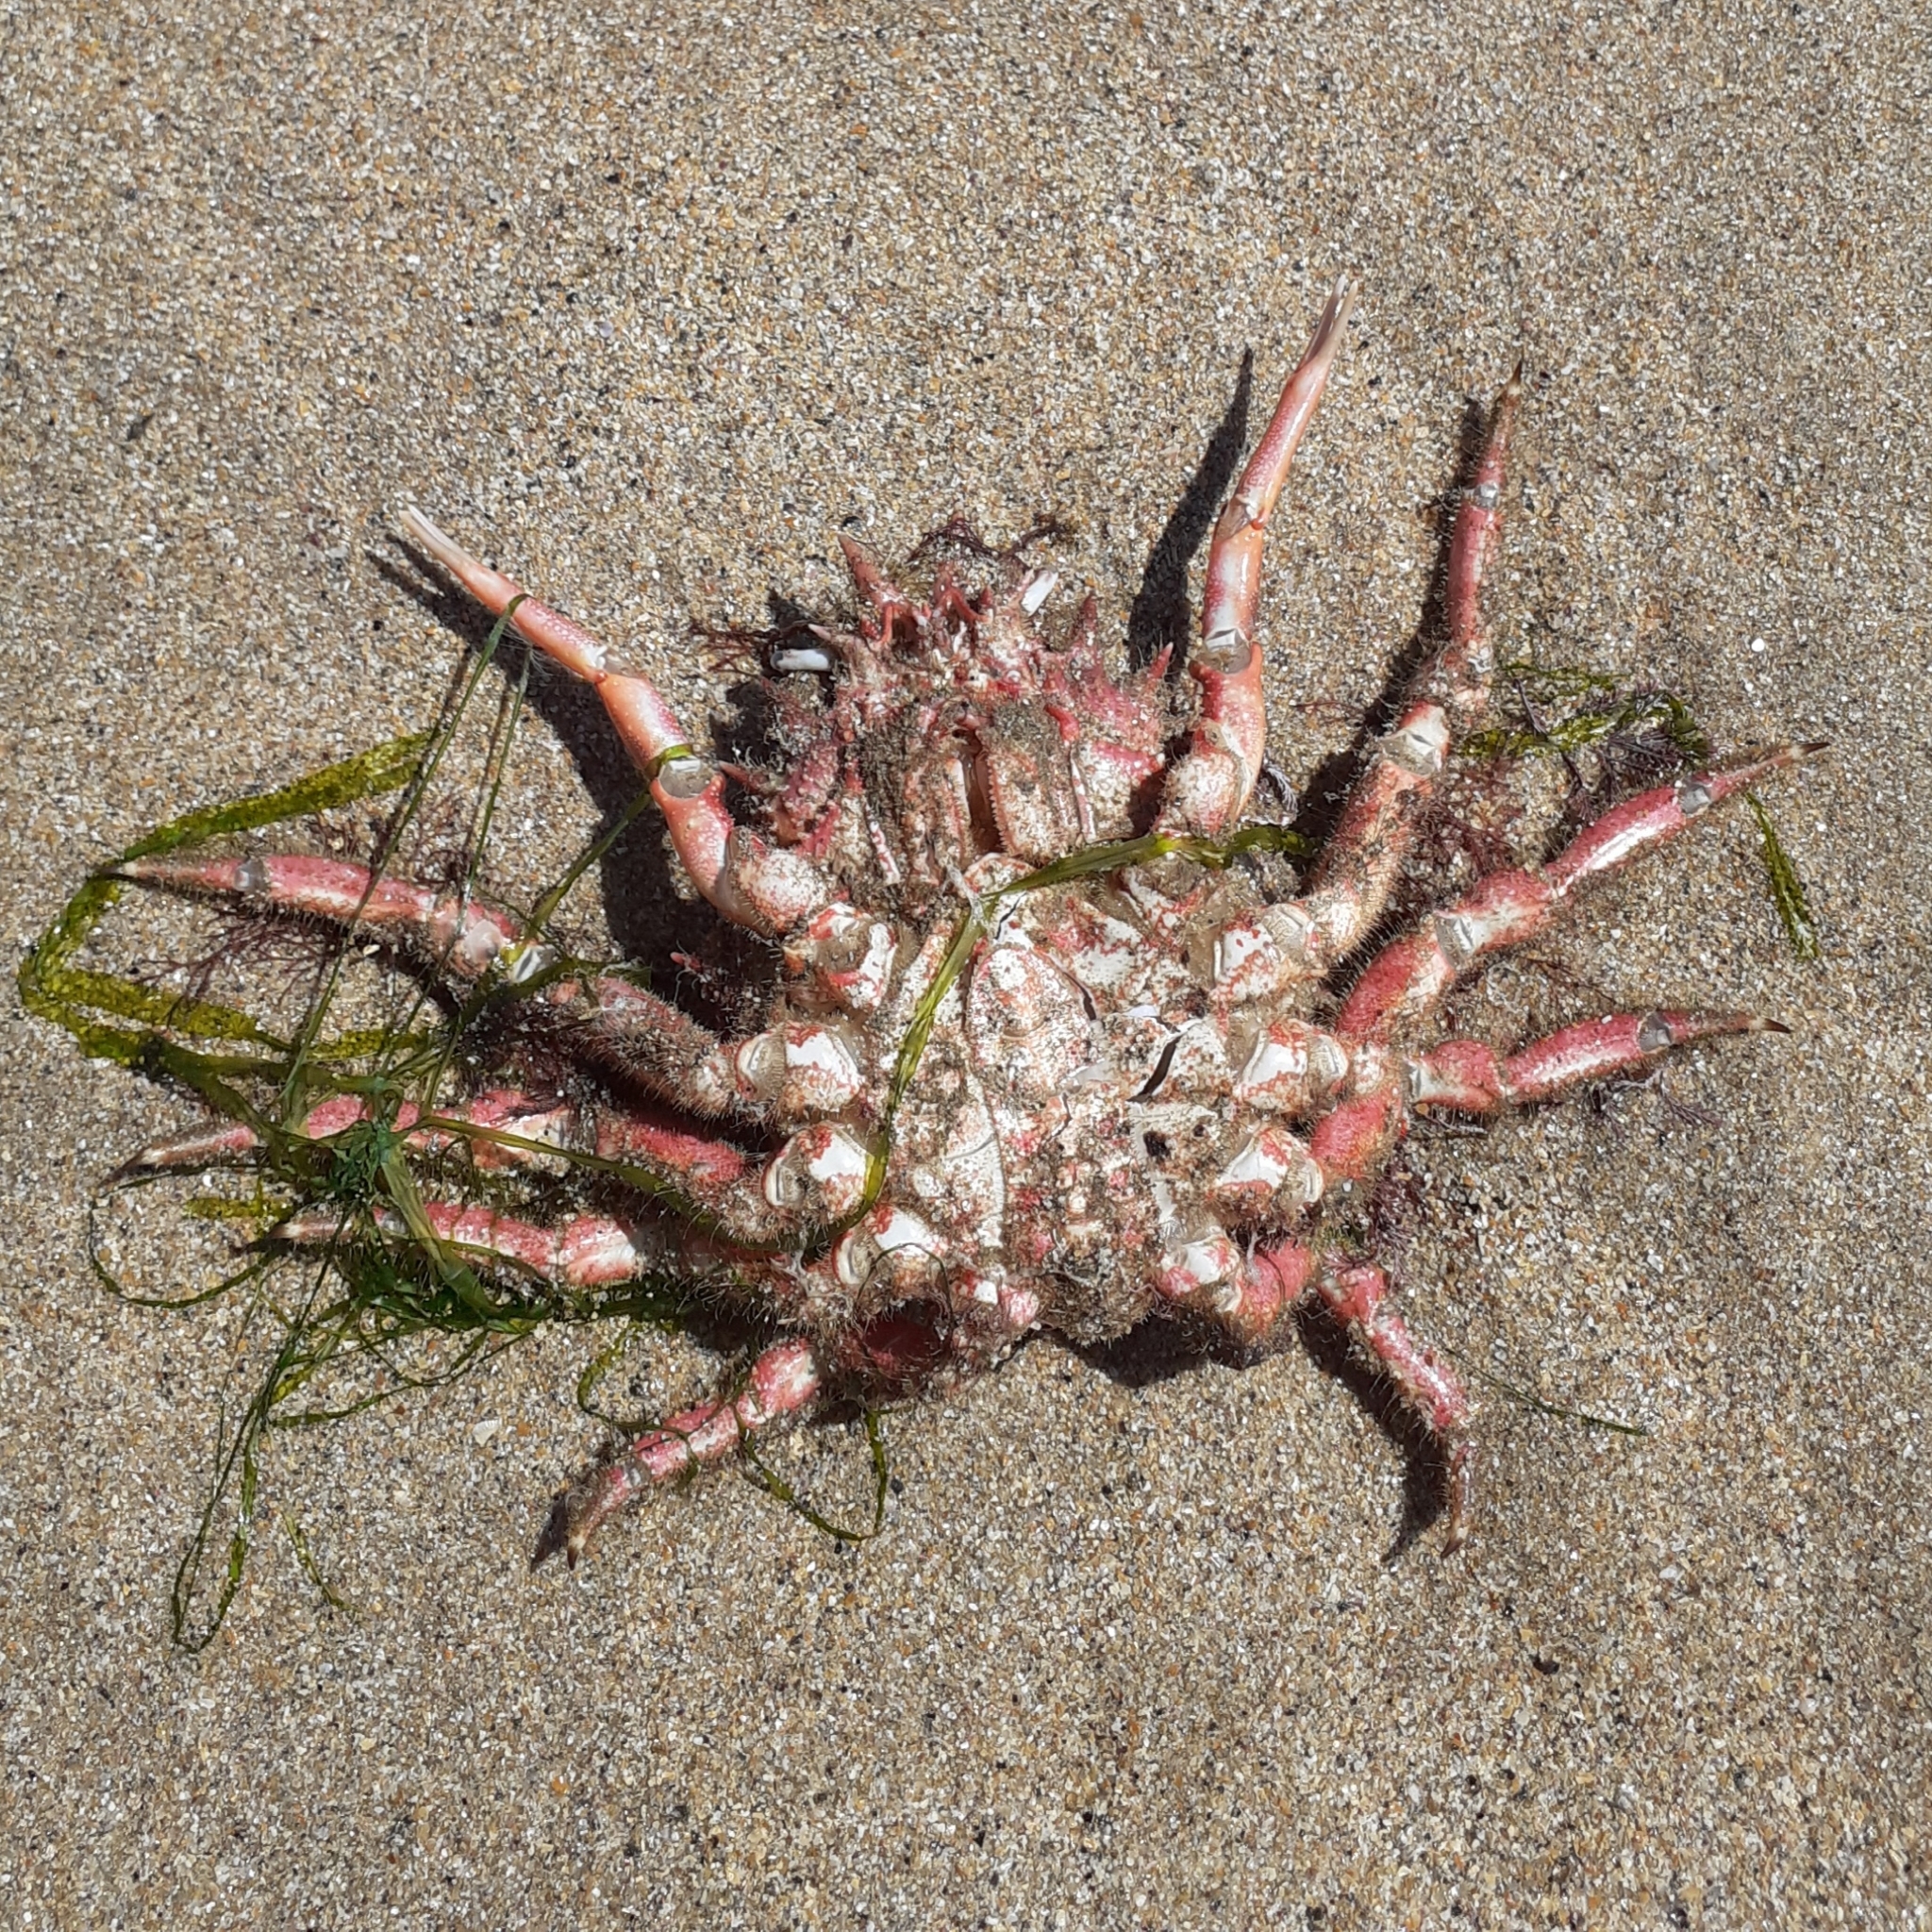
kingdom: Animalia
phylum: Arthropoda
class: Malacostraca
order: Decapoda
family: Majidae
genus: Maja
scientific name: Maja brachydactyla
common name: Common spider crab
